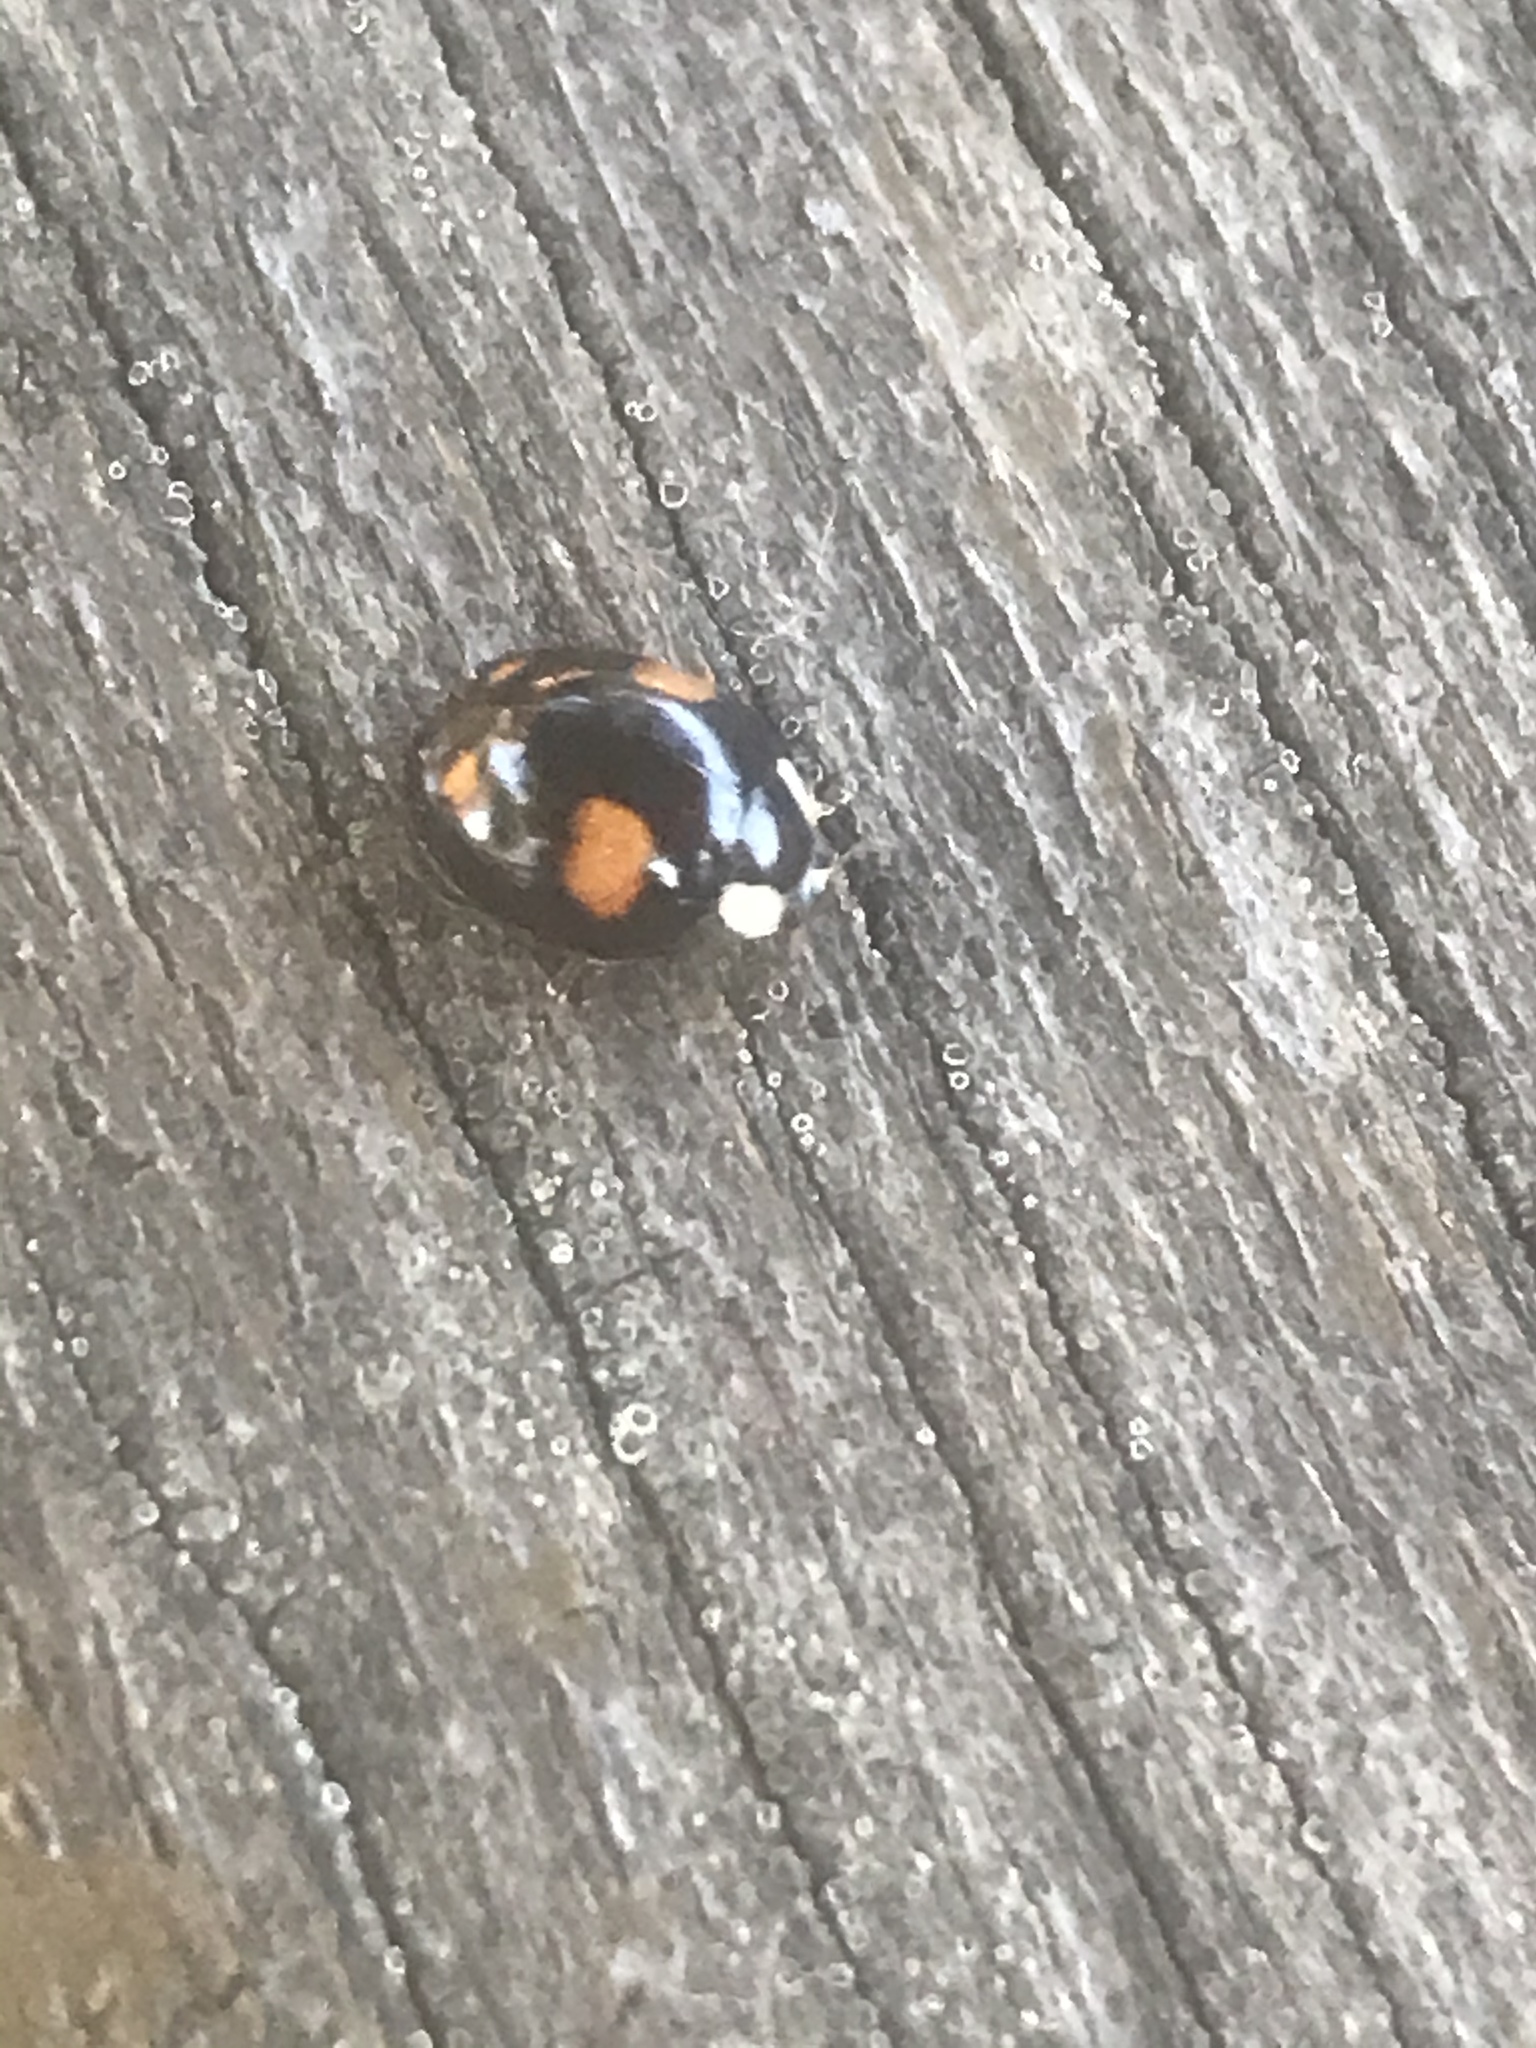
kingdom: Animalia
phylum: Arthropoda
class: Insecta
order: Coleoptera
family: Coccinellidae
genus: Harmonia
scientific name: Harmonia axyridis
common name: Harlequin ladybird
